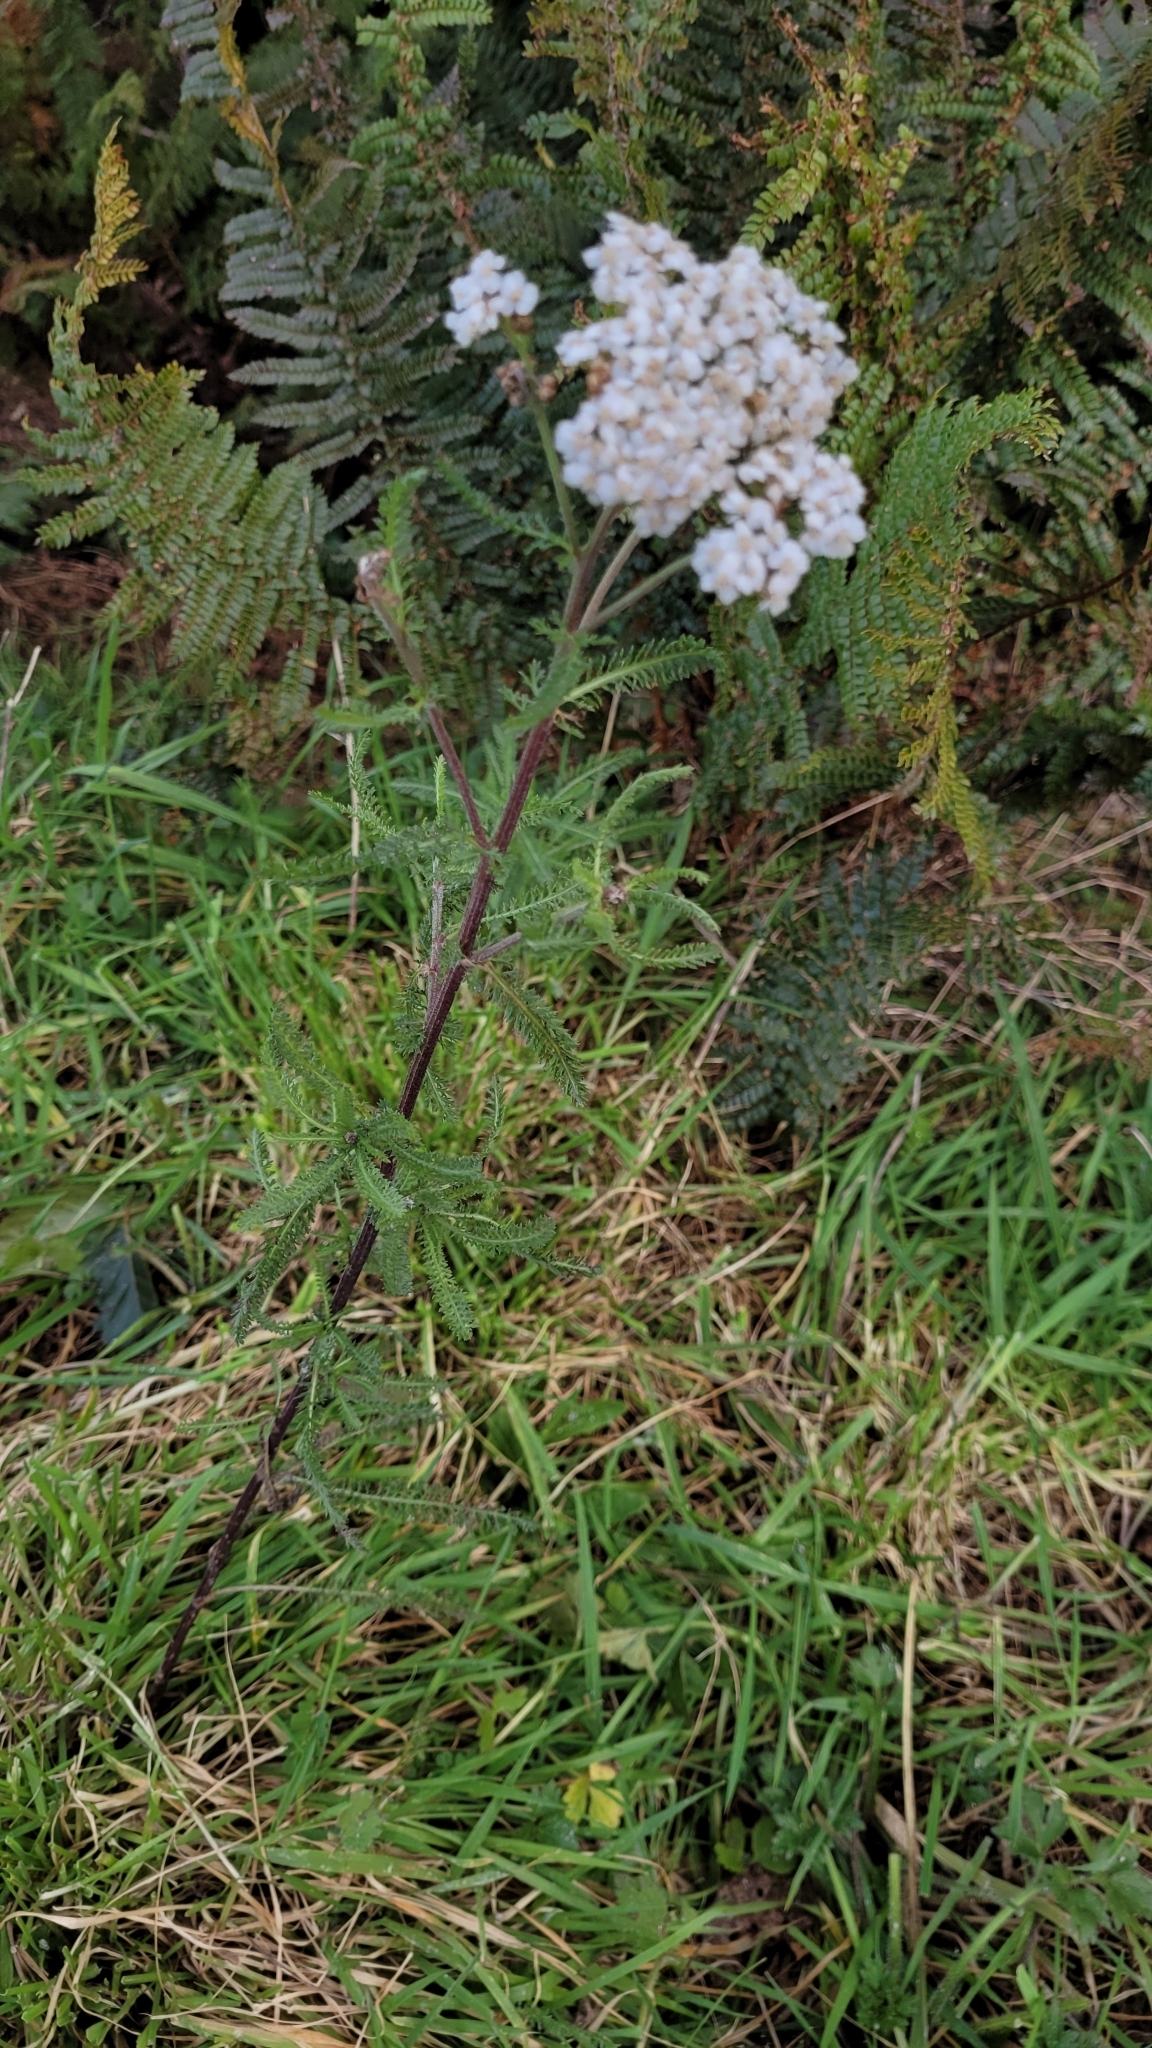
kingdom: Plantae
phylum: Tracheophyta
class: Magnoliopsida
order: Asterales
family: Asteraceae
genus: Achillea
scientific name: Achillea millefolium
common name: Yarrow
